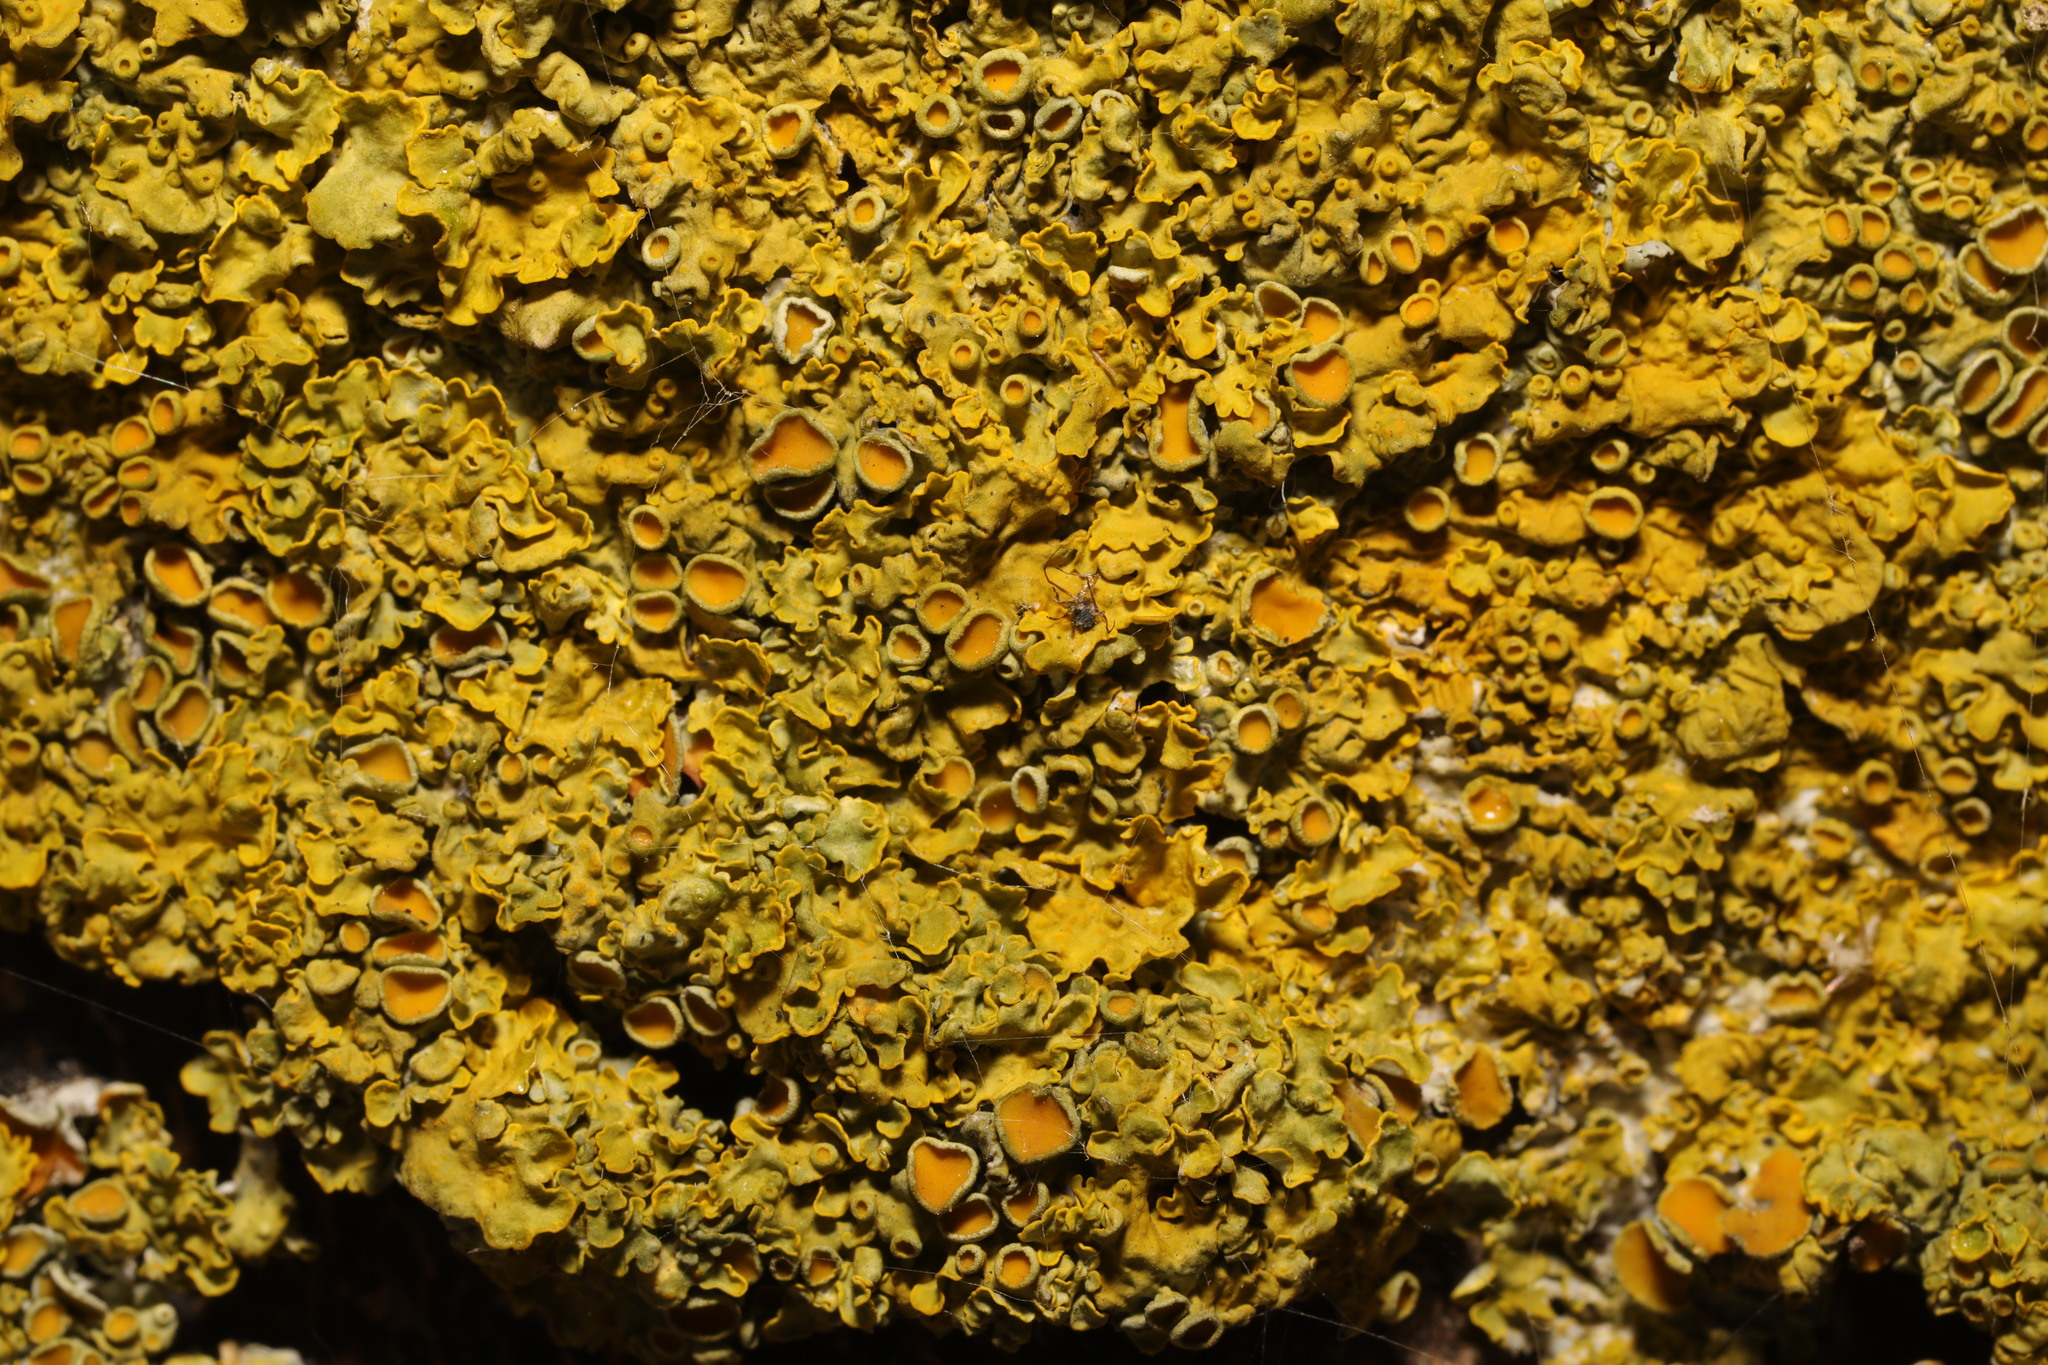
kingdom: Fungi
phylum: Ascomycota
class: Lecanoromycetes
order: Teloschistales
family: Teloschistaceae
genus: Xanthoria
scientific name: Xanthoria parietina
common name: Common orange lichen
